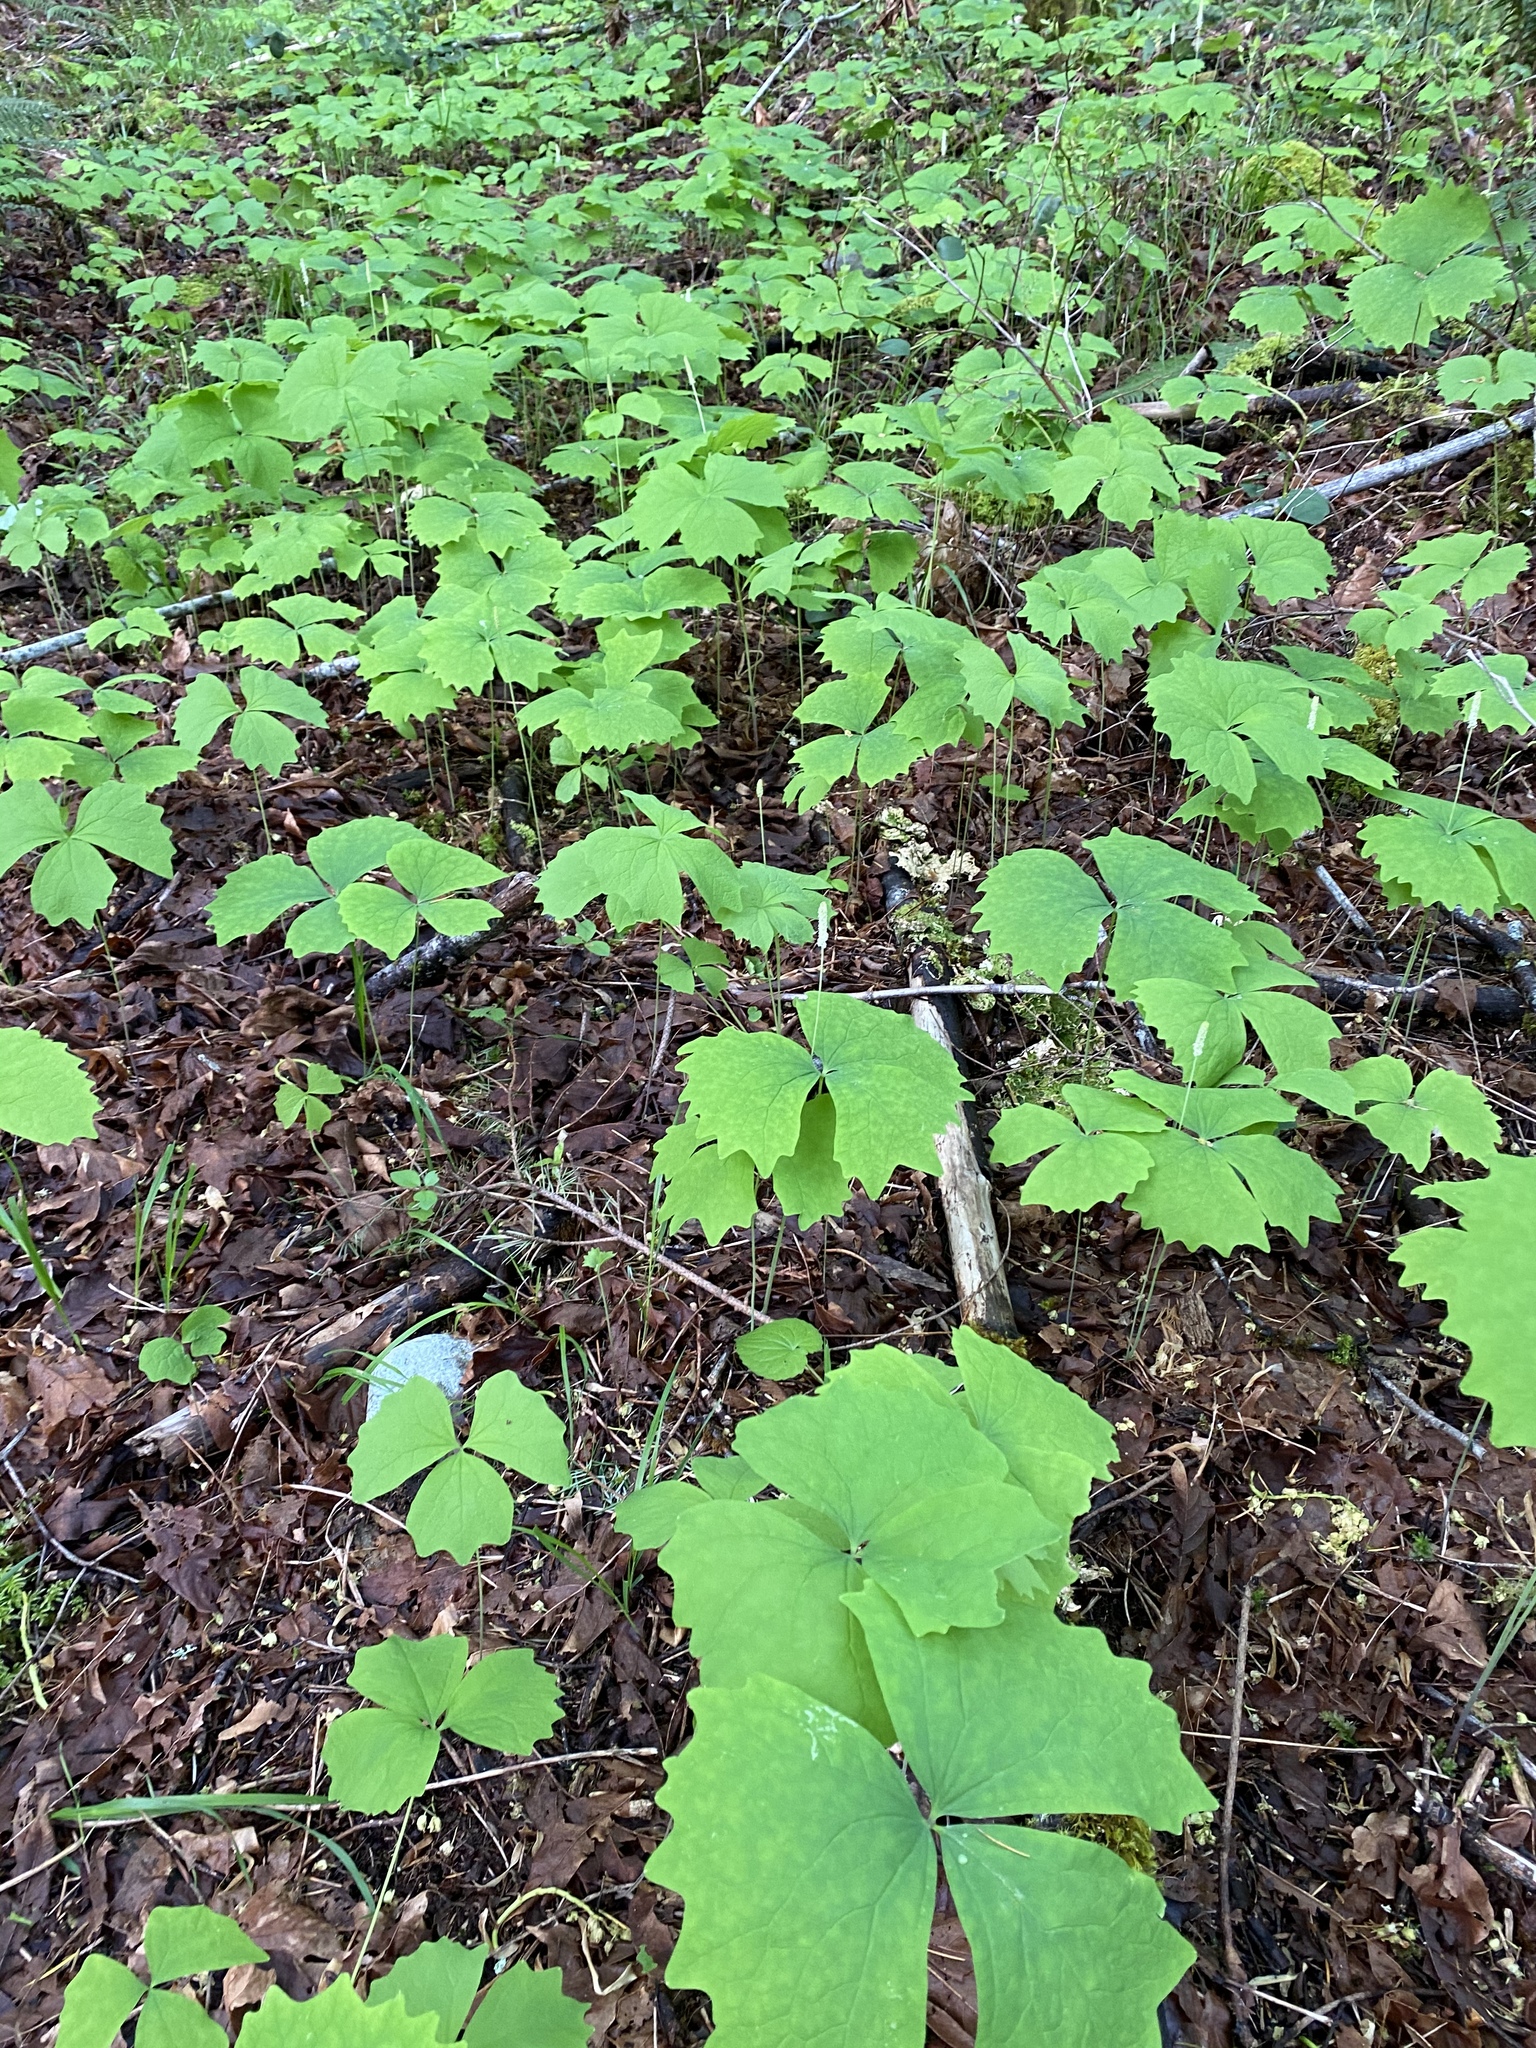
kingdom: Plantae
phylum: Tracheophyta
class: Magnoliopsida
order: Ranunculales
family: Berberidaceae
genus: Achlys
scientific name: Achlys triphylla
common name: Vanilla-leaf
